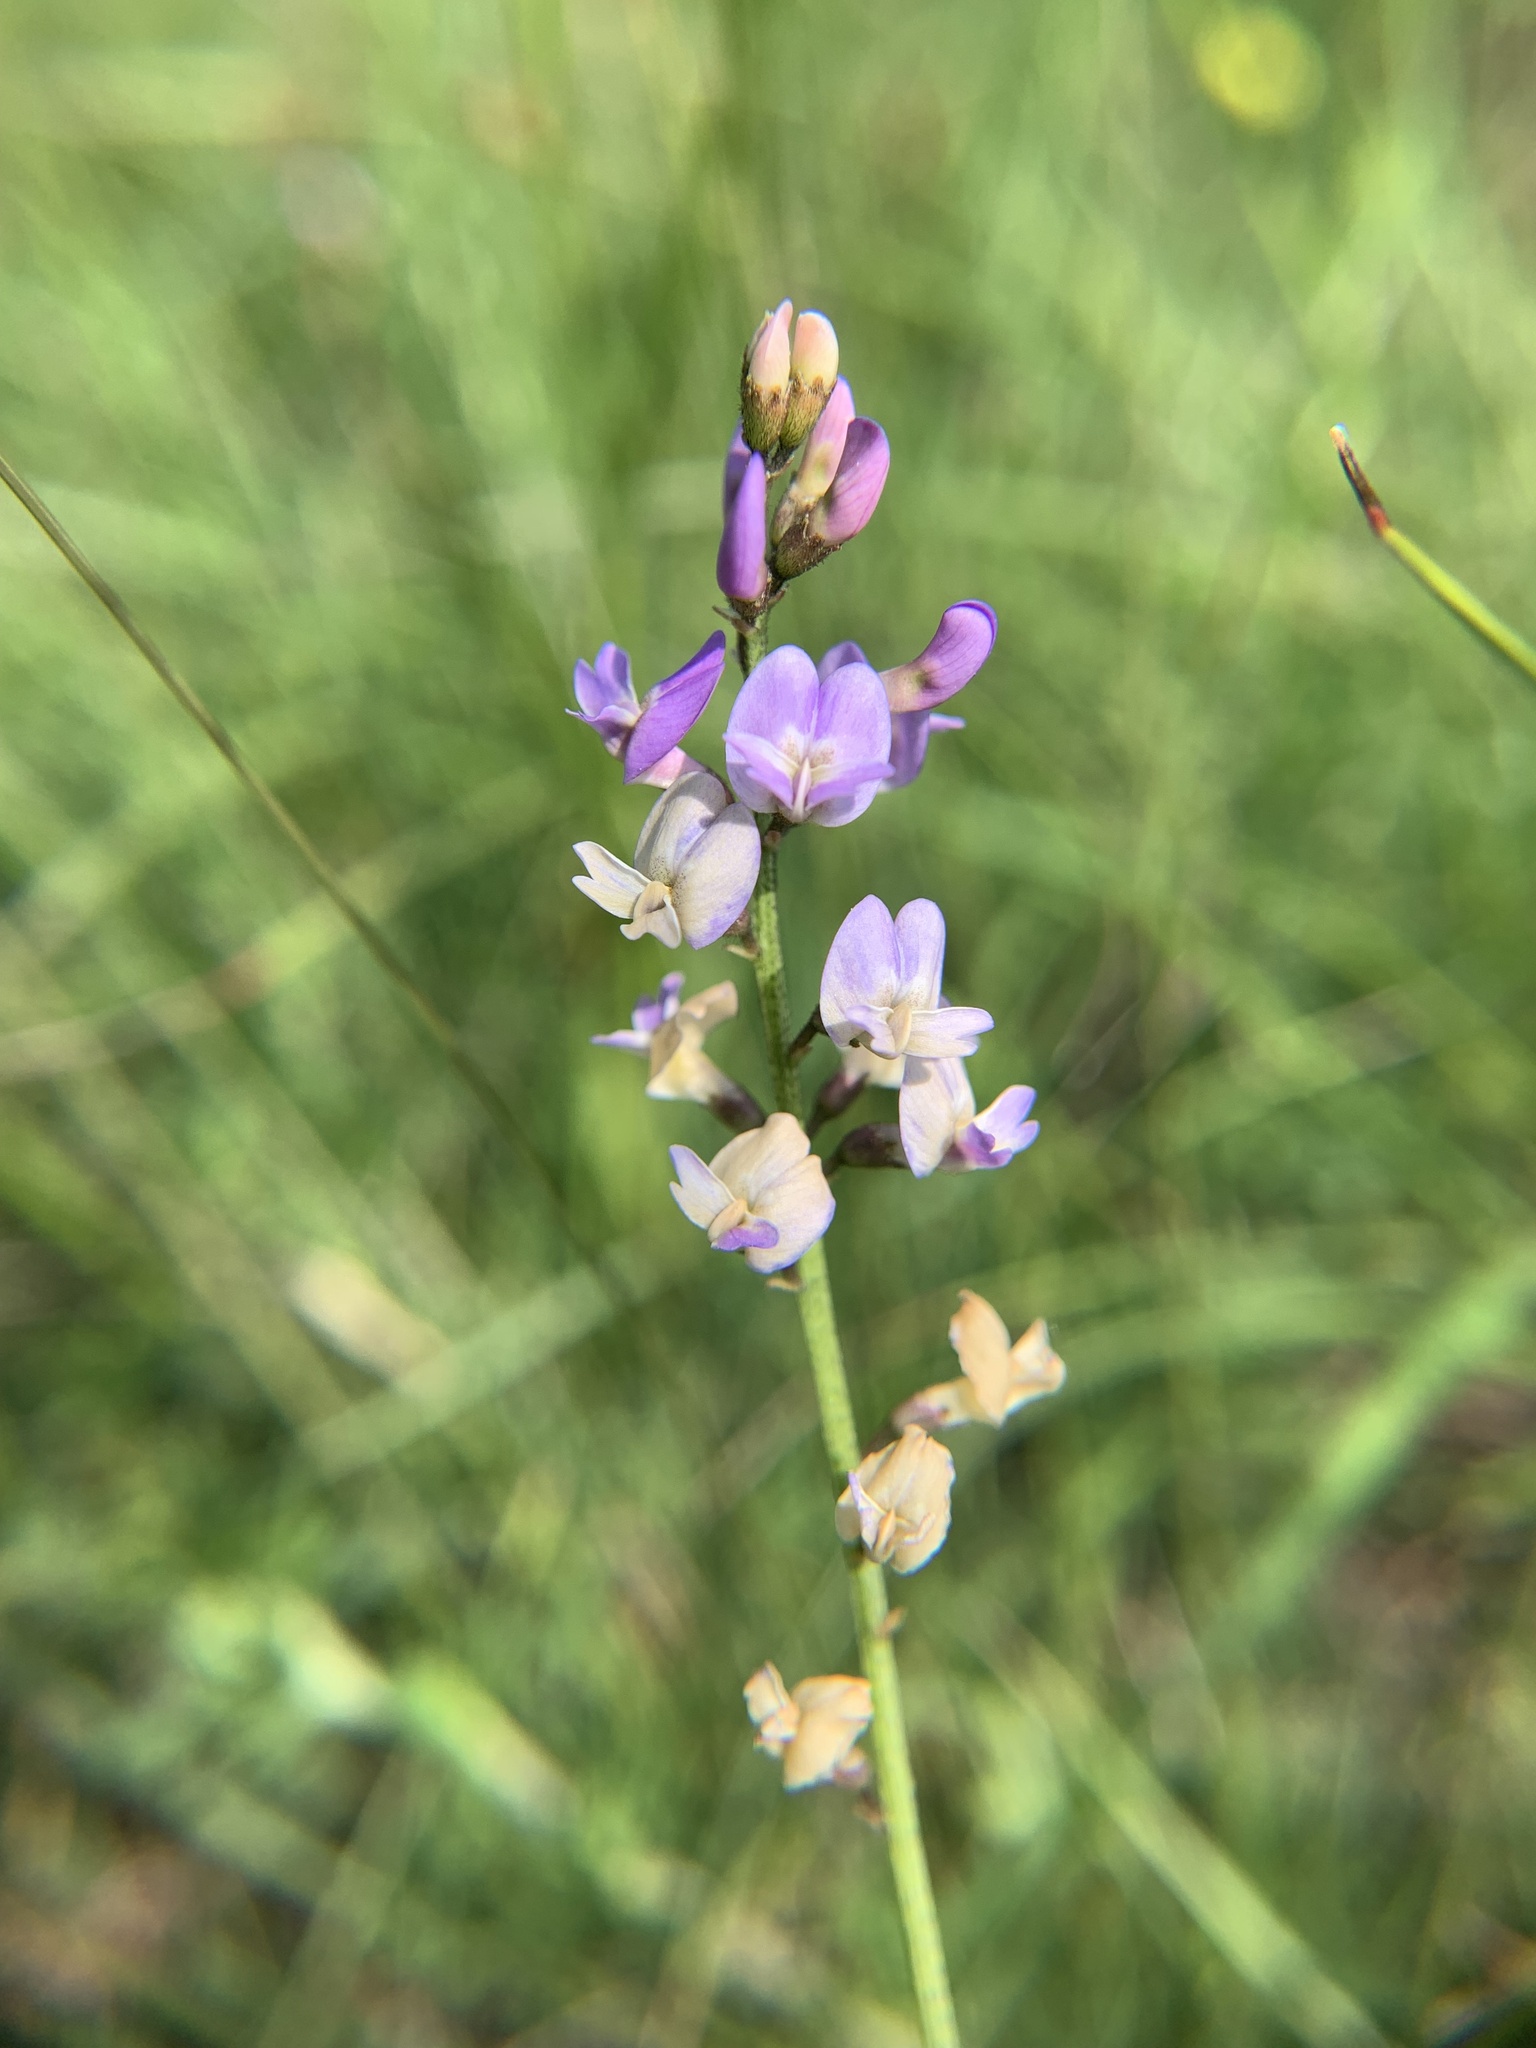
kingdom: Plantae
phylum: Tracheophyta
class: Magnoliopsida
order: Fabales
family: Fabaceae
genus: Astragalus
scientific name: Astragalus austriacus
